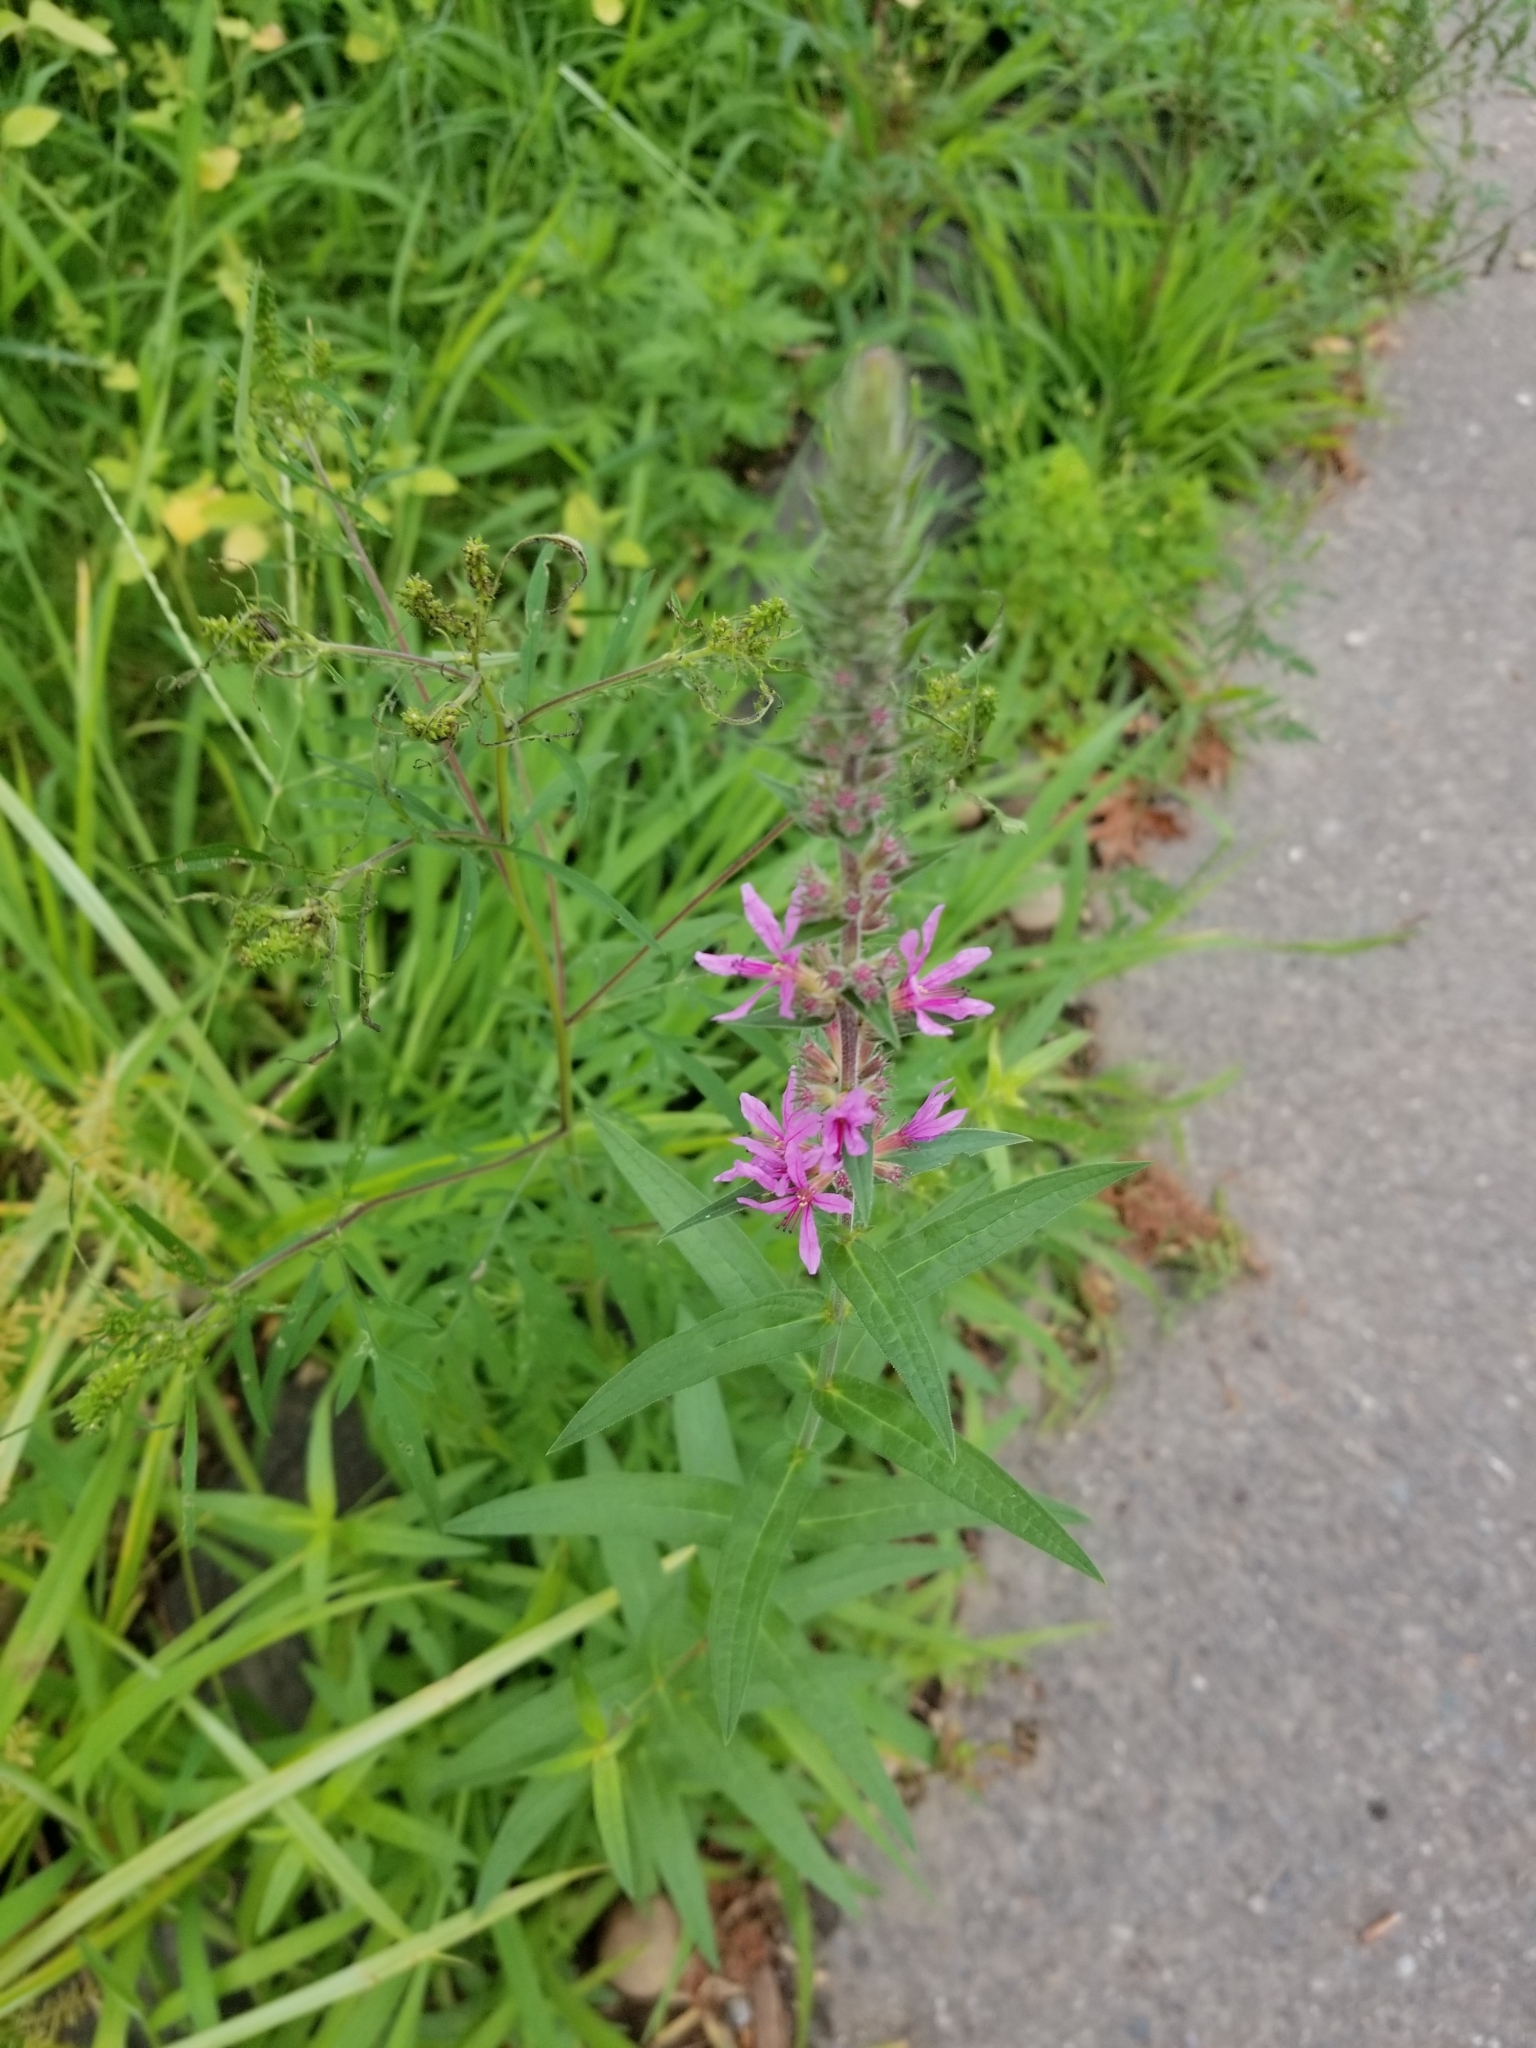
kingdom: Plantae
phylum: Tracheophyta
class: Magnoliopsida
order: Myrtales
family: Lythraceae
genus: Lythrum
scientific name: Lythrum salicaria
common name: Purple loosestrife
